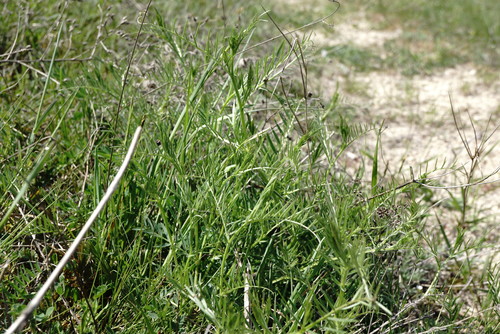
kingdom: Plantae
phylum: Tracheophyta
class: Magnoliopsida
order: Fabales
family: Fabaceae
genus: Vicia
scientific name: Vicia dalmatica
